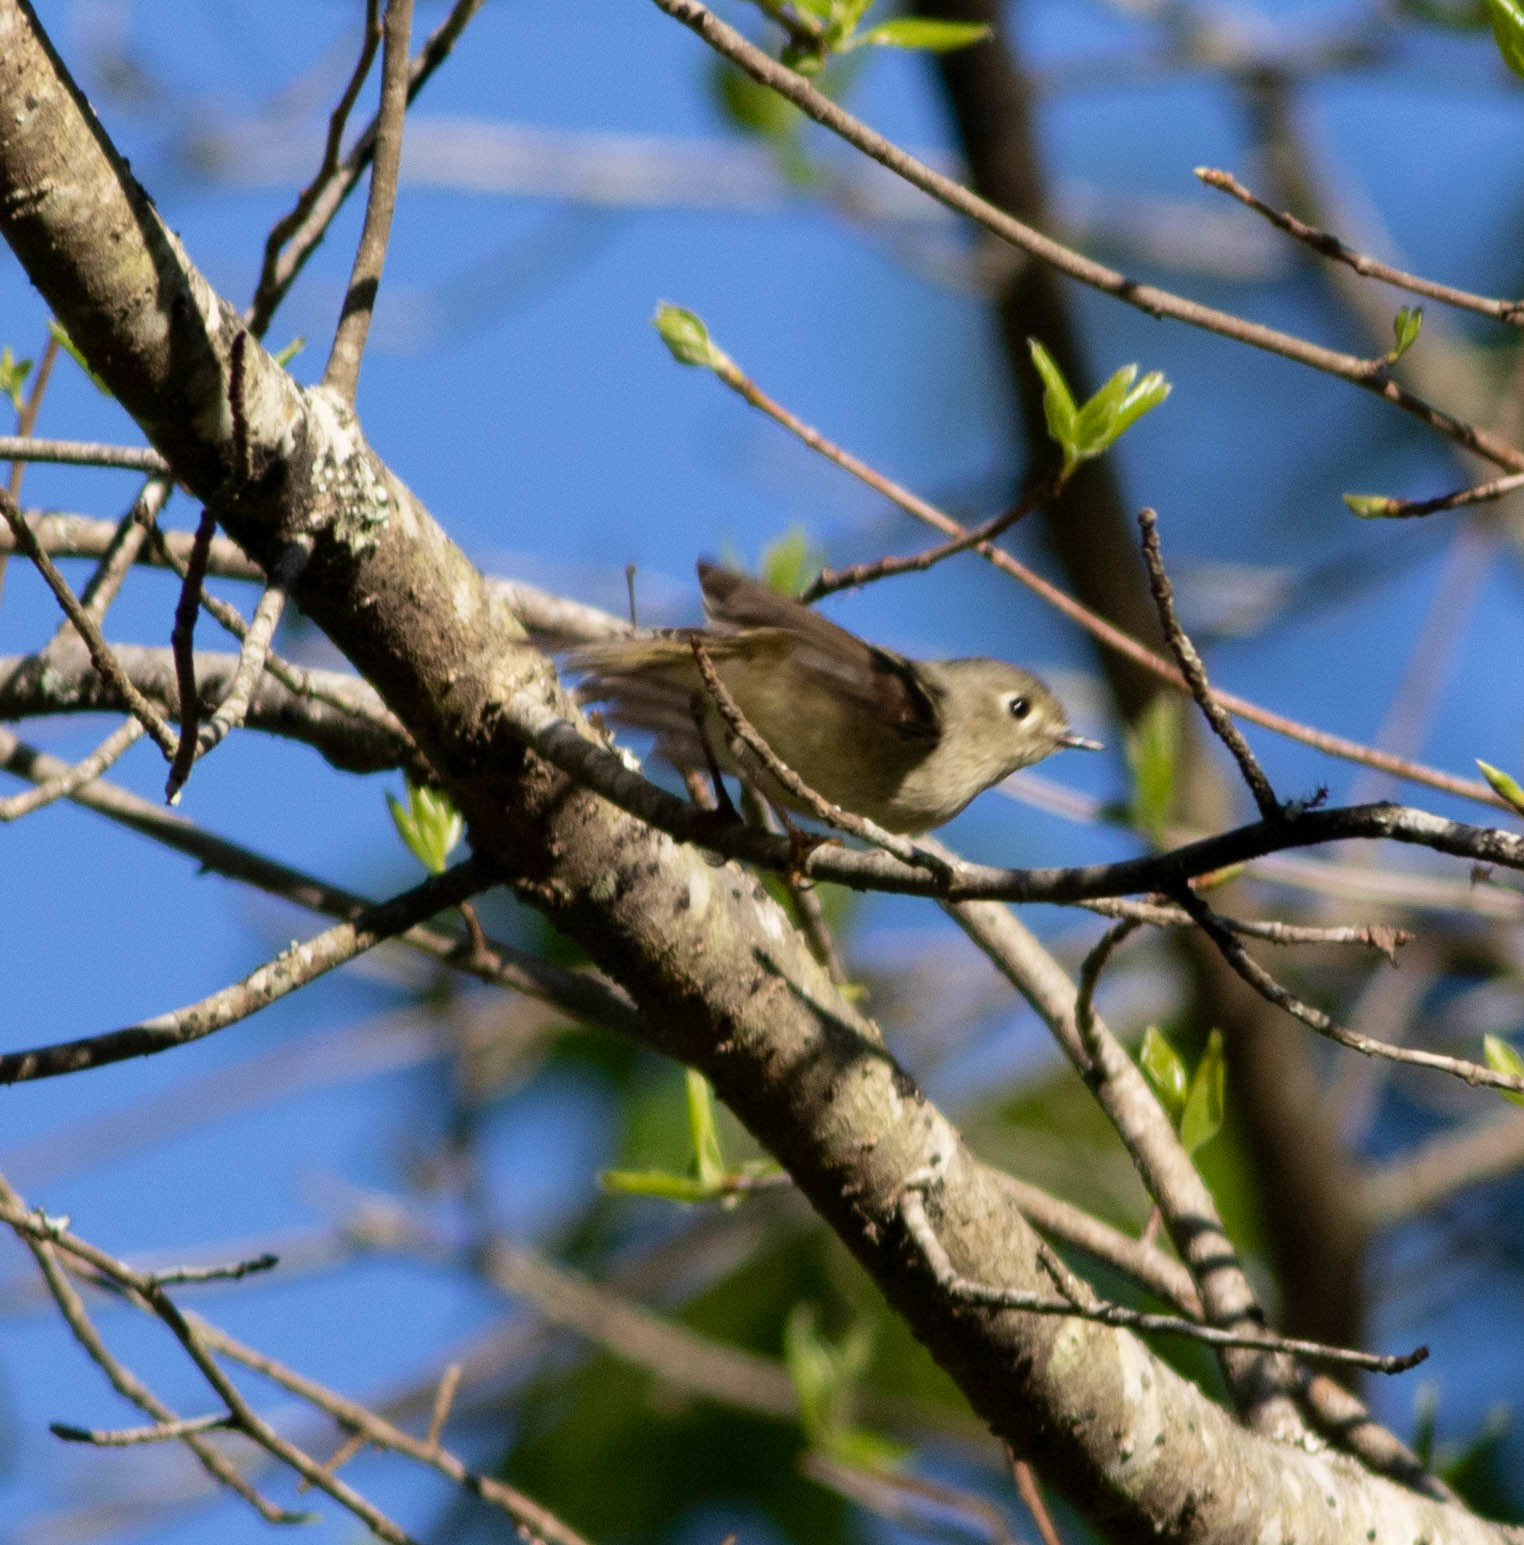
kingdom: Animalia
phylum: Chordata
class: Aves
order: Passeriformes
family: Regulidae
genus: Regulus
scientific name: Regulus calendula
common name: Ruby-crowned kinglet
